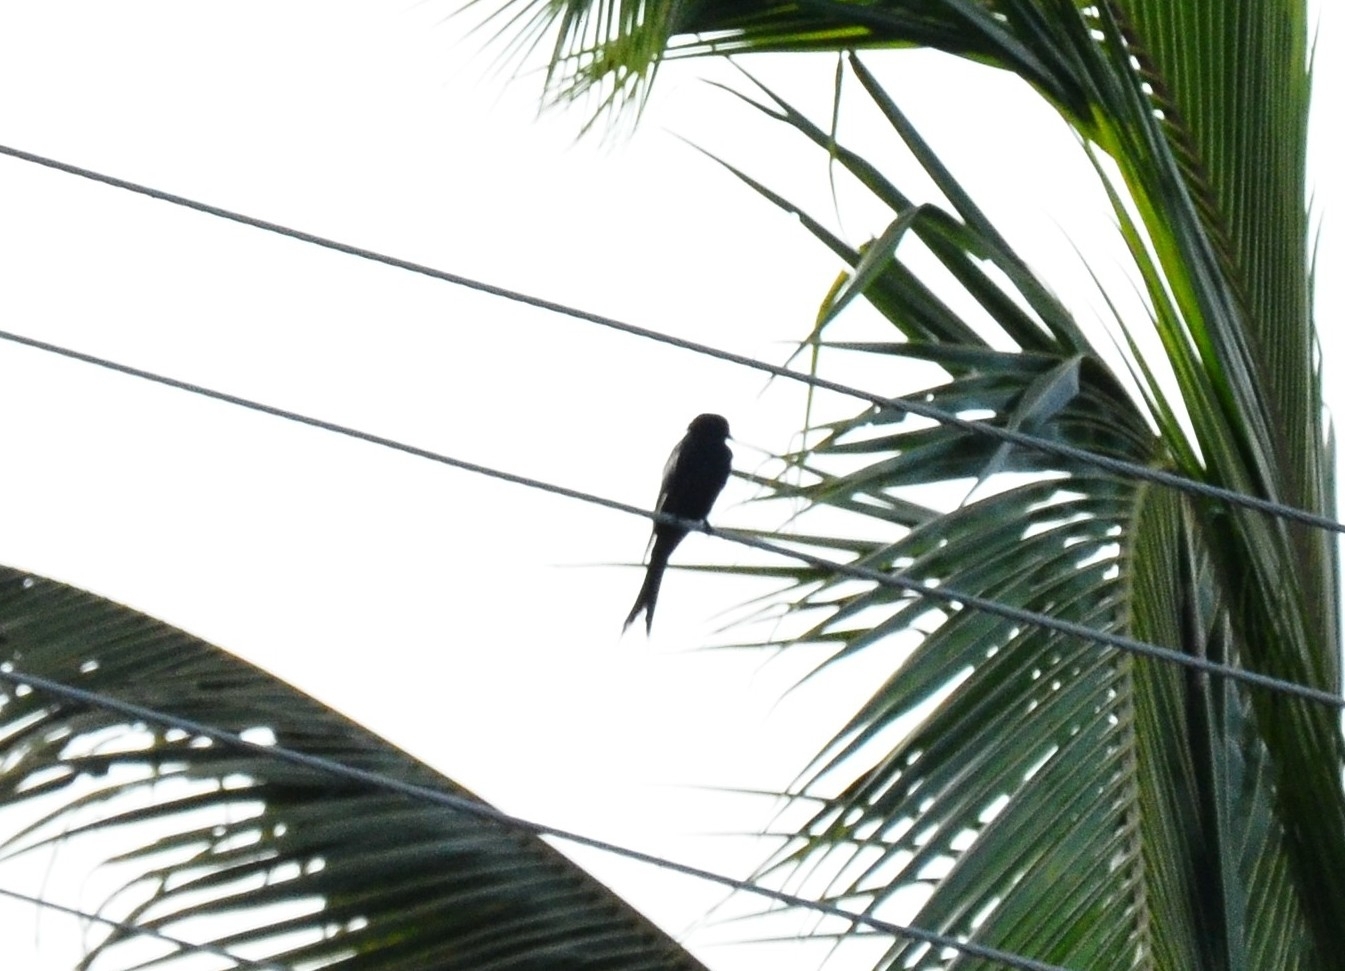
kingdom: Animalia
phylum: Chordata
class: Aves
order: Passeriformes
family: Dicruridae
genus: Dicrurus
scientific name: Dicrurus macrocercus
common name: Black drongo
